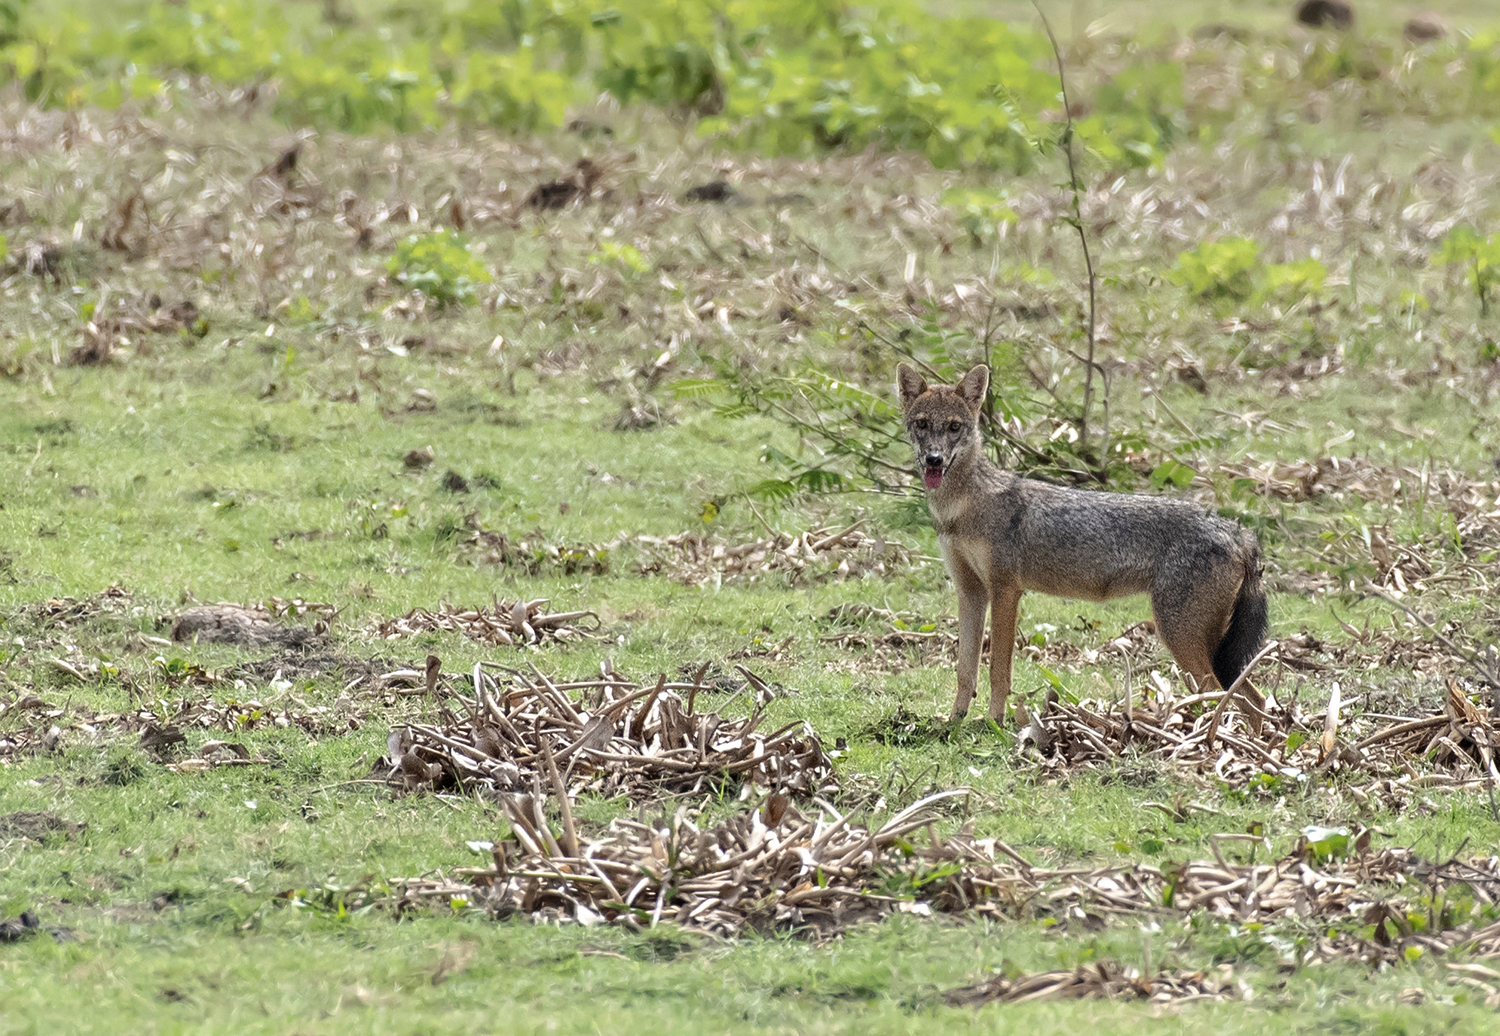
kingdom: Animalia
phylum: Chordata
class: Mammalia
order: Carnivora
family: Canidae
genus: Canis
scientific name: Canis aureus
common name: Golden jackal
